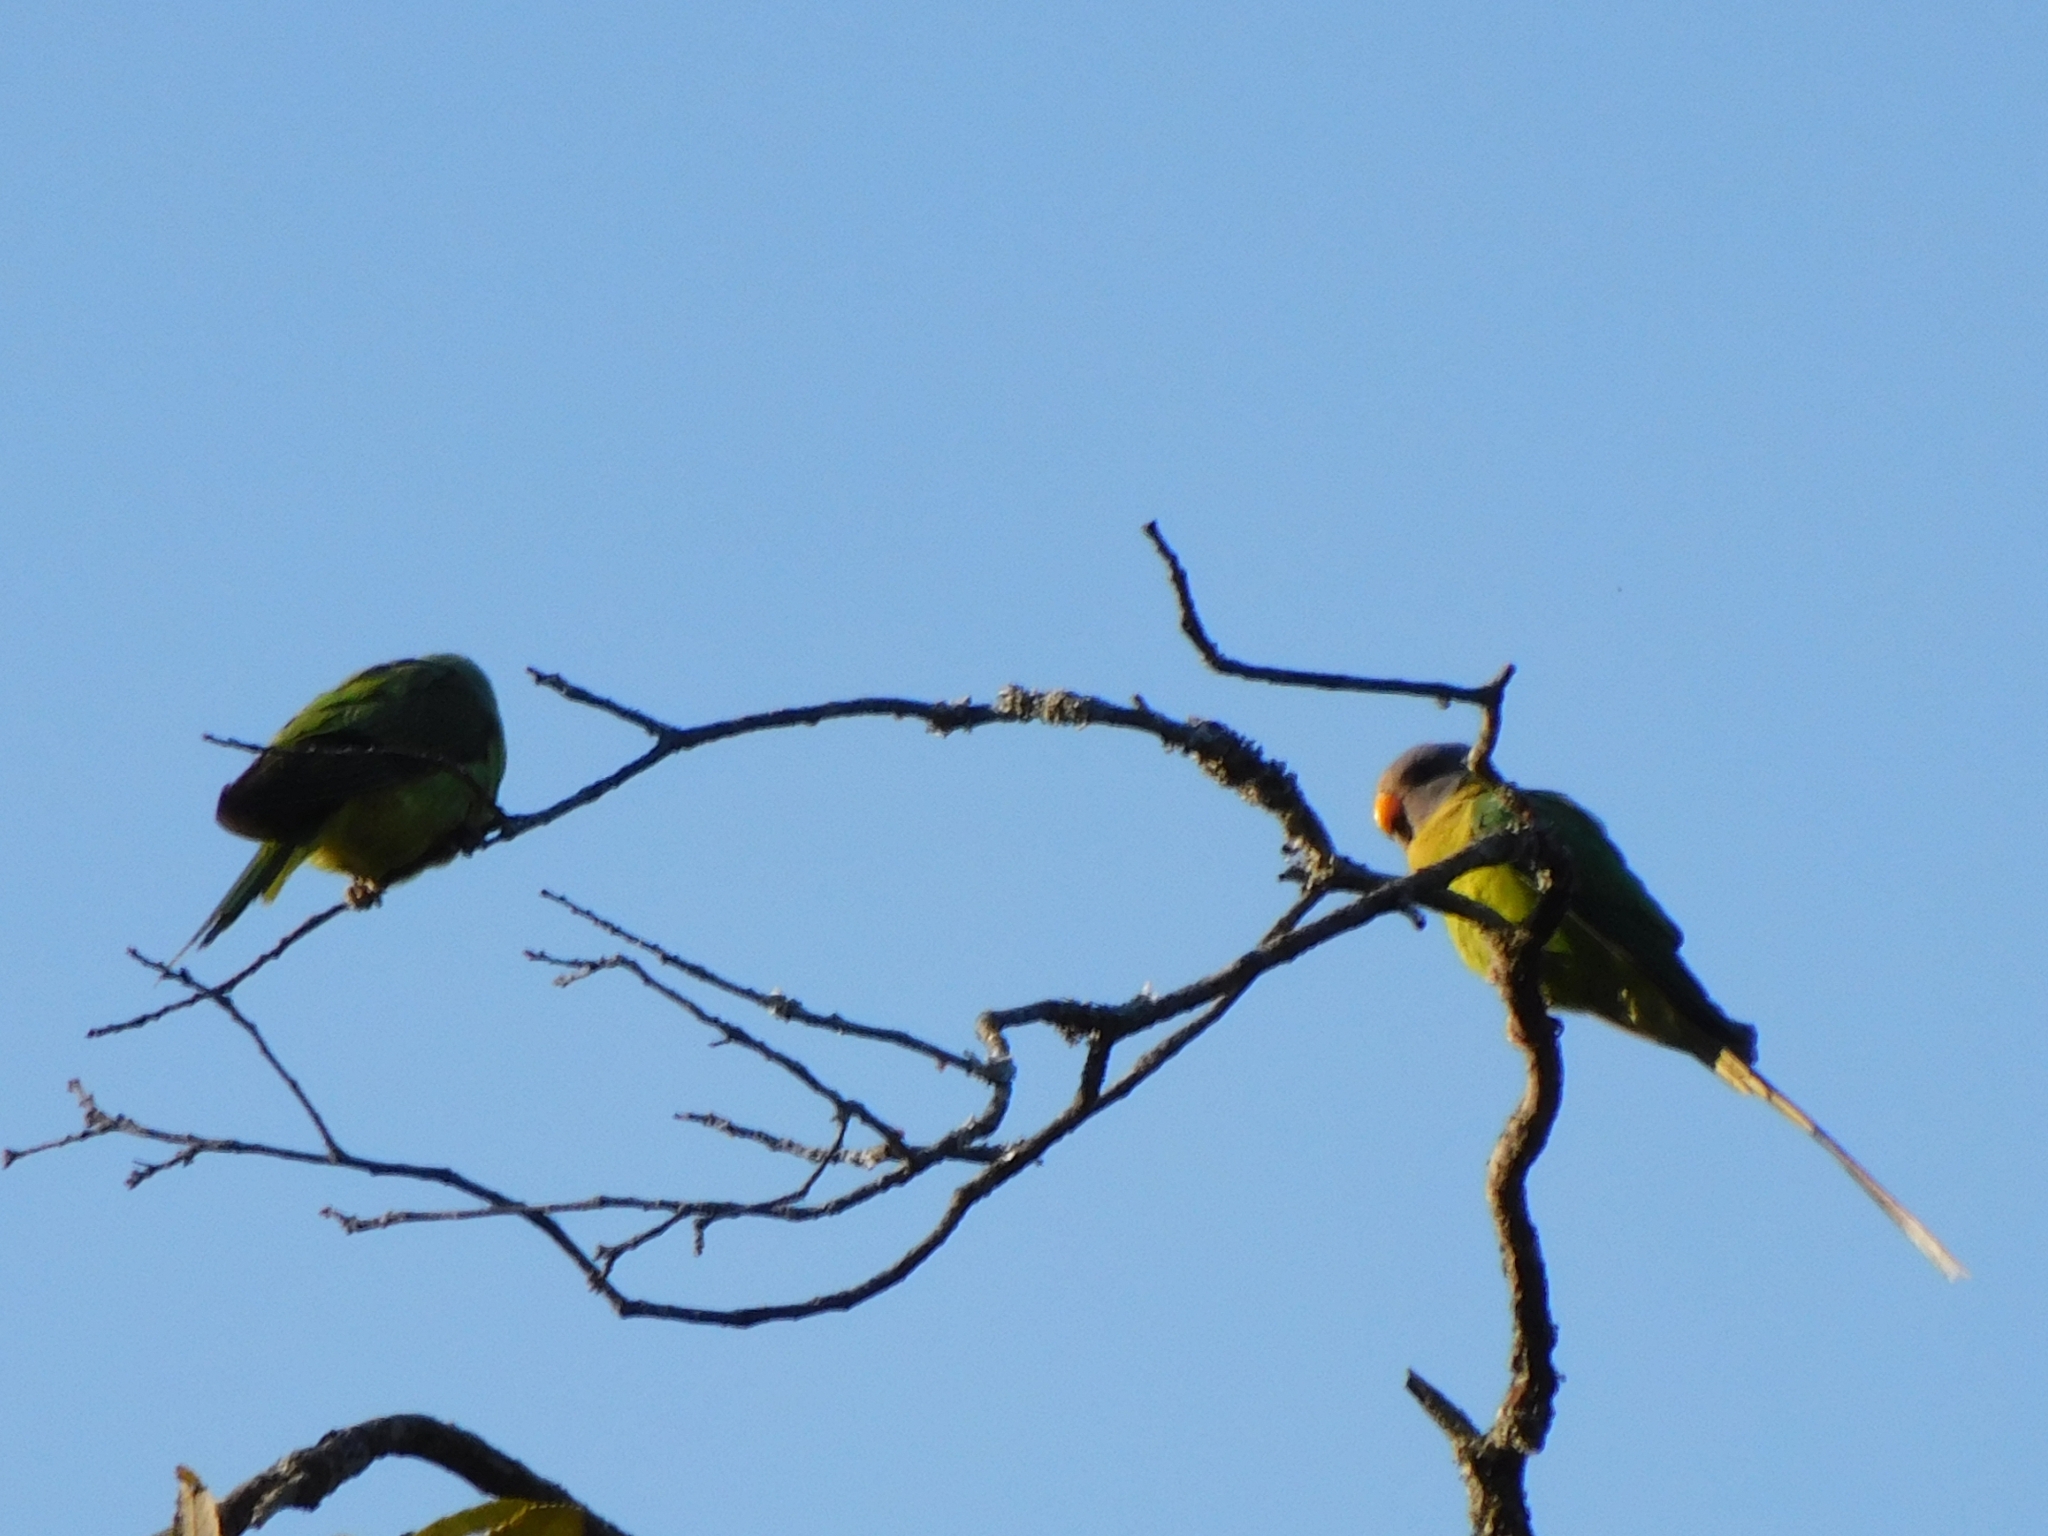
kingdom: Animalia
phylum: Chordata
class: Aves
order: Psittaciformes
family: Psittacidae
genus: Psittacula
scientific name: Psittacula cyanocephala
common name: Plum-headed parakeet
